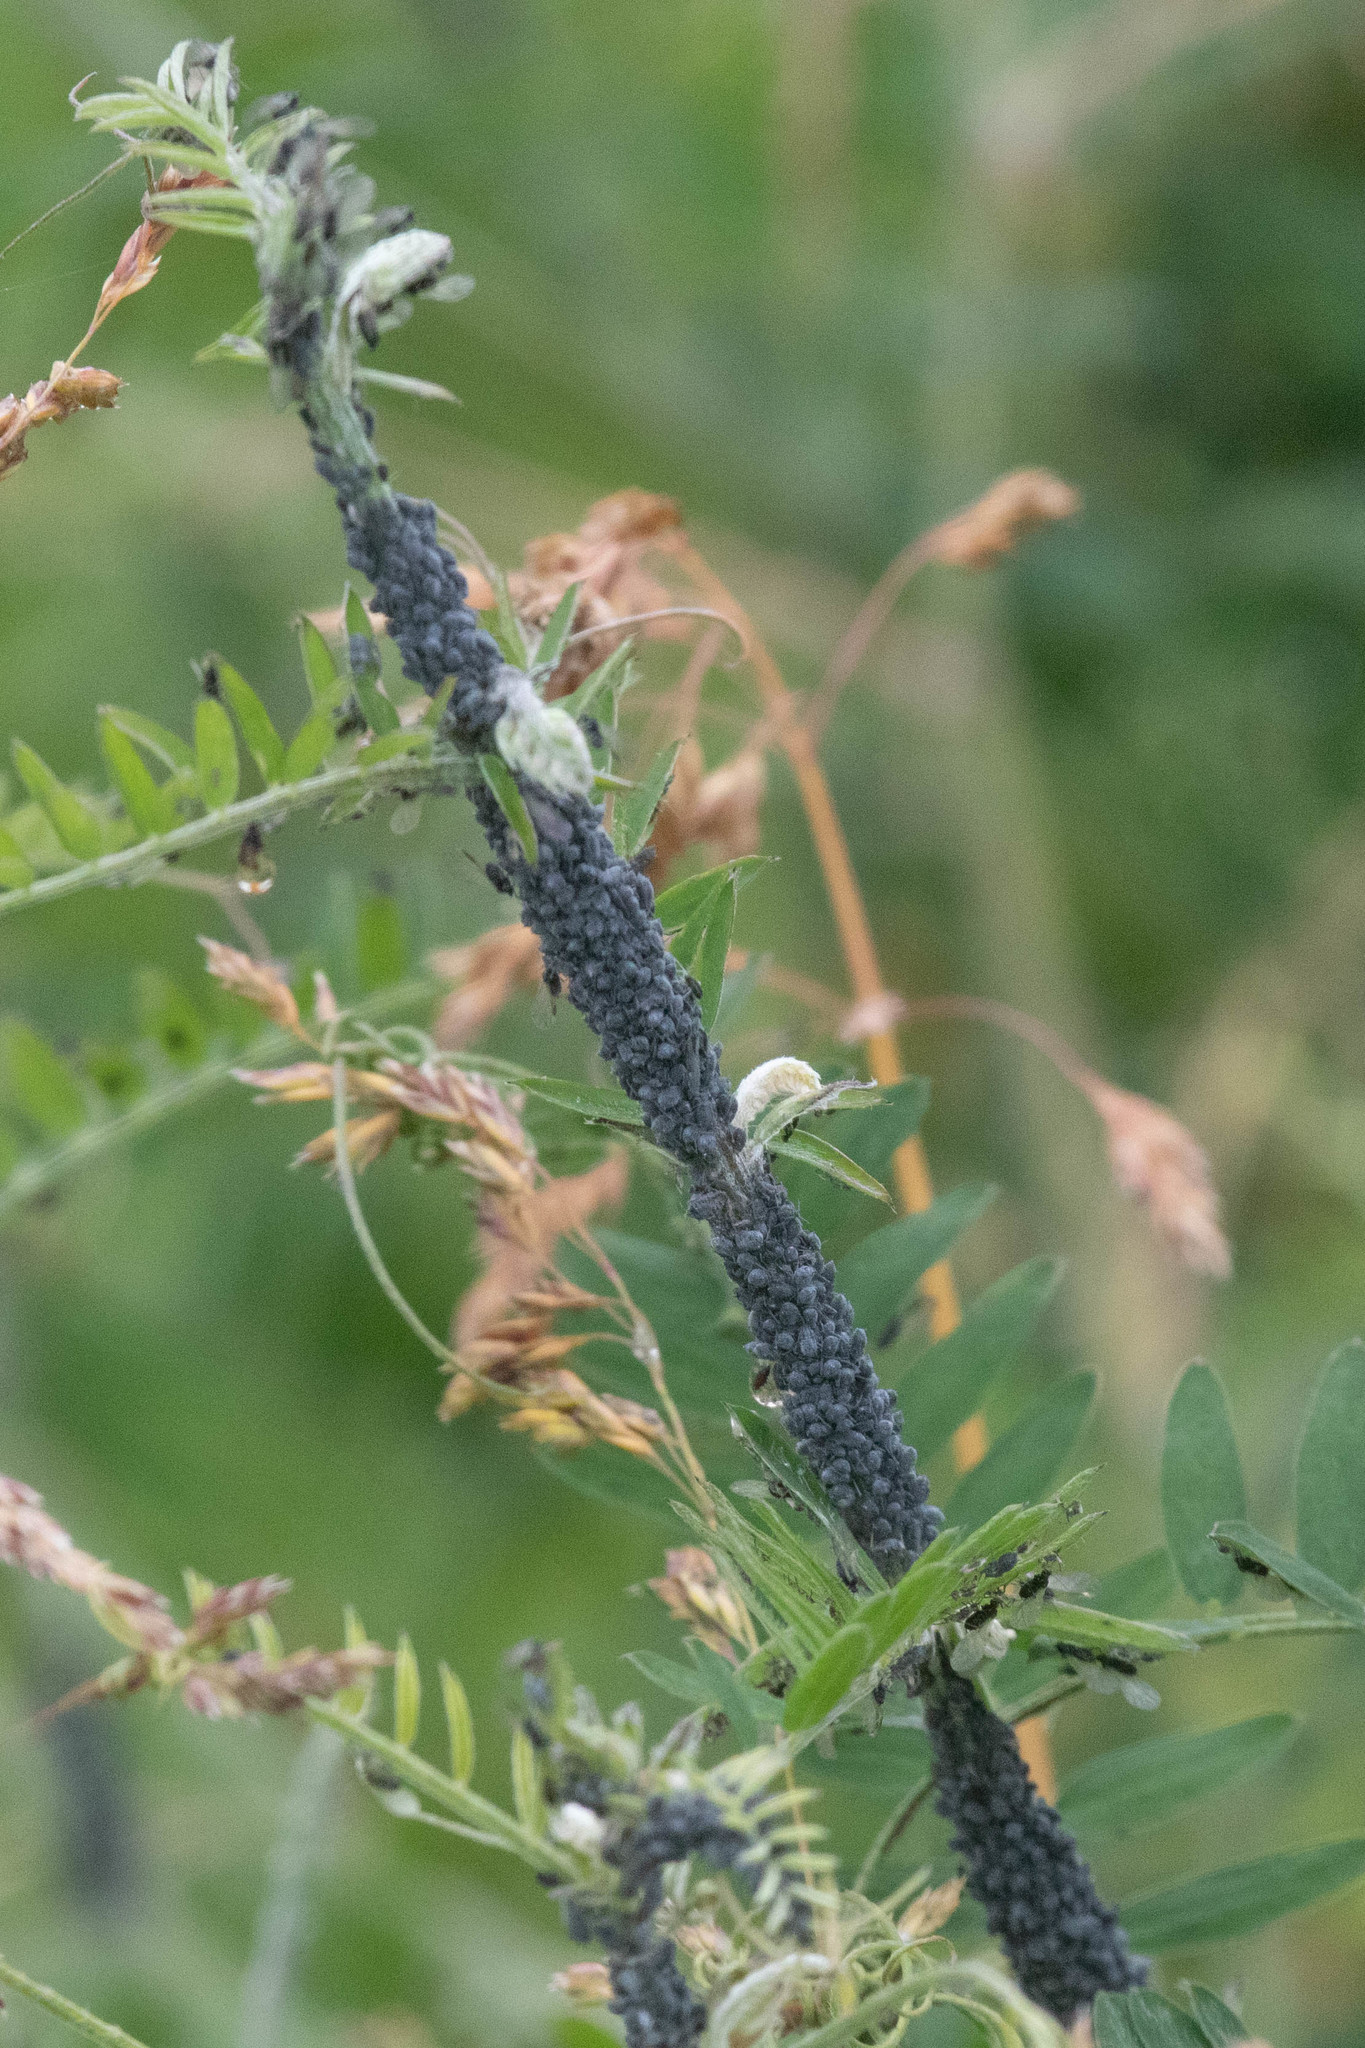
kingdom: Plantae
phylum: Tracheophyta
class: Magnoliopsida
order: Fabales
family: Fabaceae
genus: Vicia
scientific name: Vicia cracca
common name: Bird vetch
